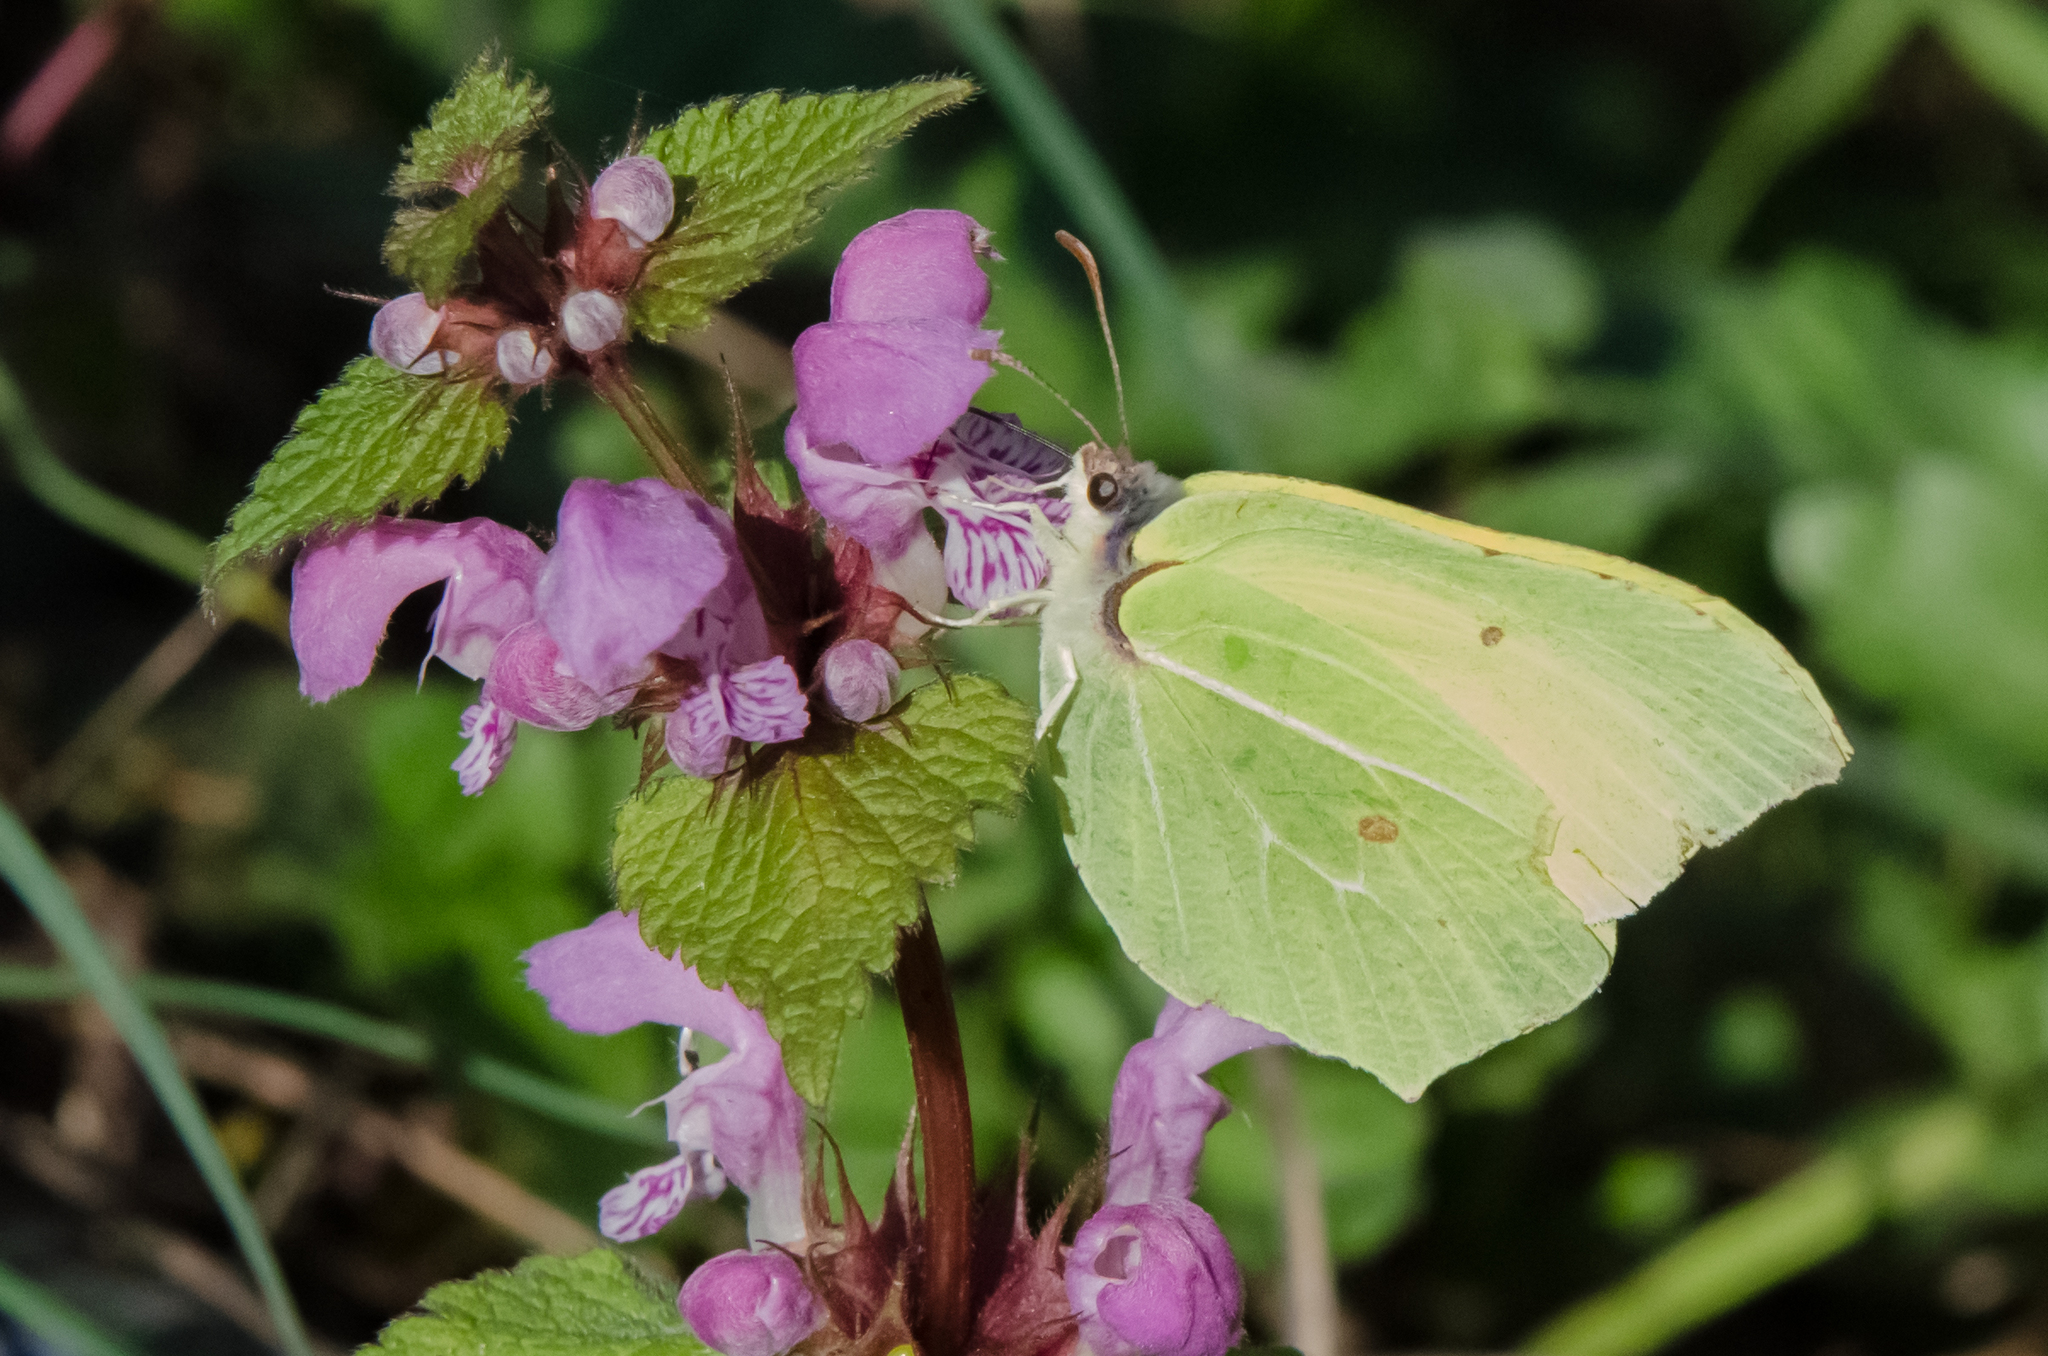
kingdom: Animalia
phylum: Arthropoda
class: Insecta
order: Lepidoptera
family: Pieridae
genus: Gonepteryx
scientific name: Gonepteryx rhamni
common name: Brimstone
